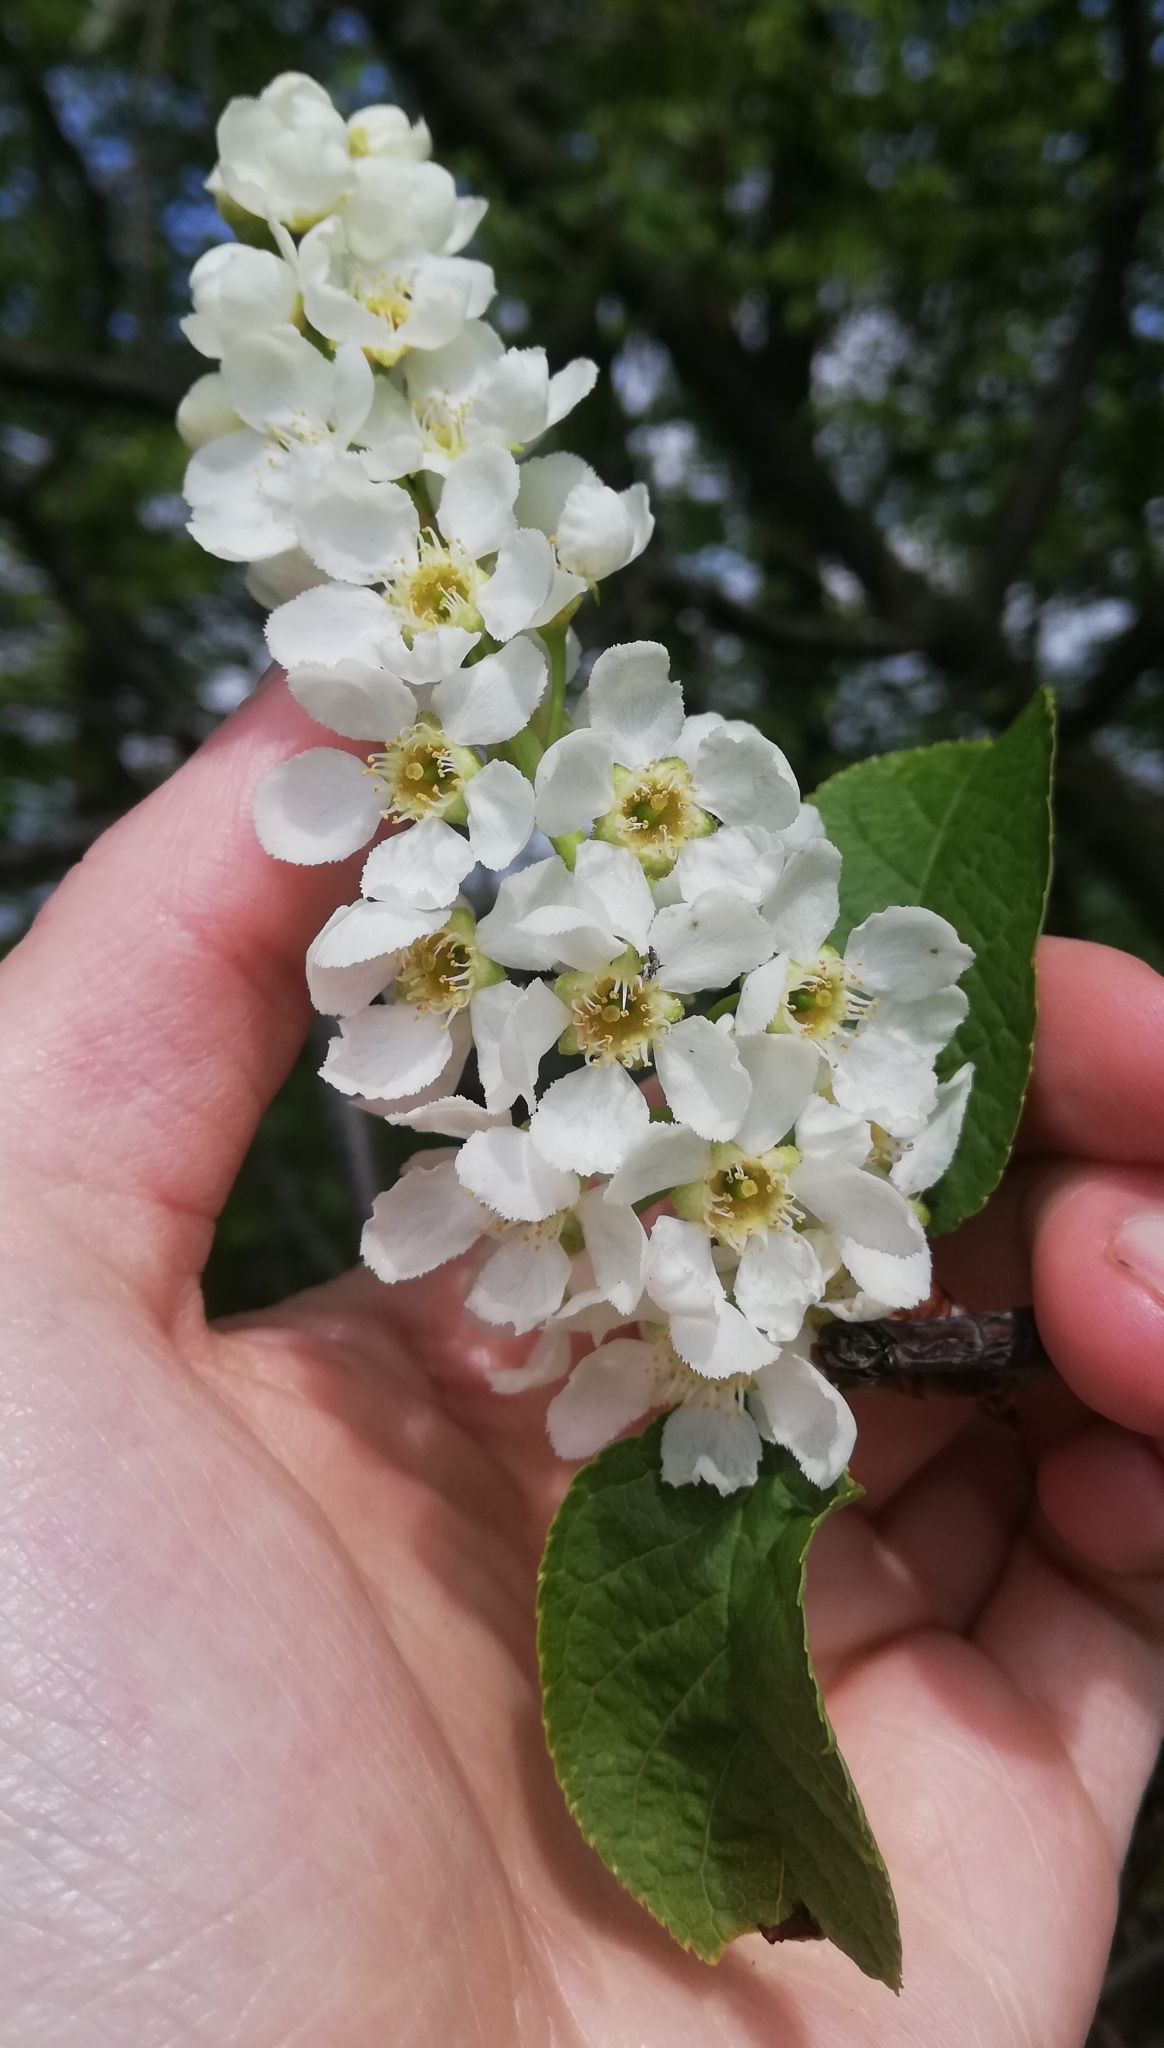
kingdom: Plantae
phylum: Tracheophyta
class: Magnoliopsida
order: Rosales
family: Rosaceae
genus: Prunus
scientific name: Prunus padus
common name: Bird cherry
